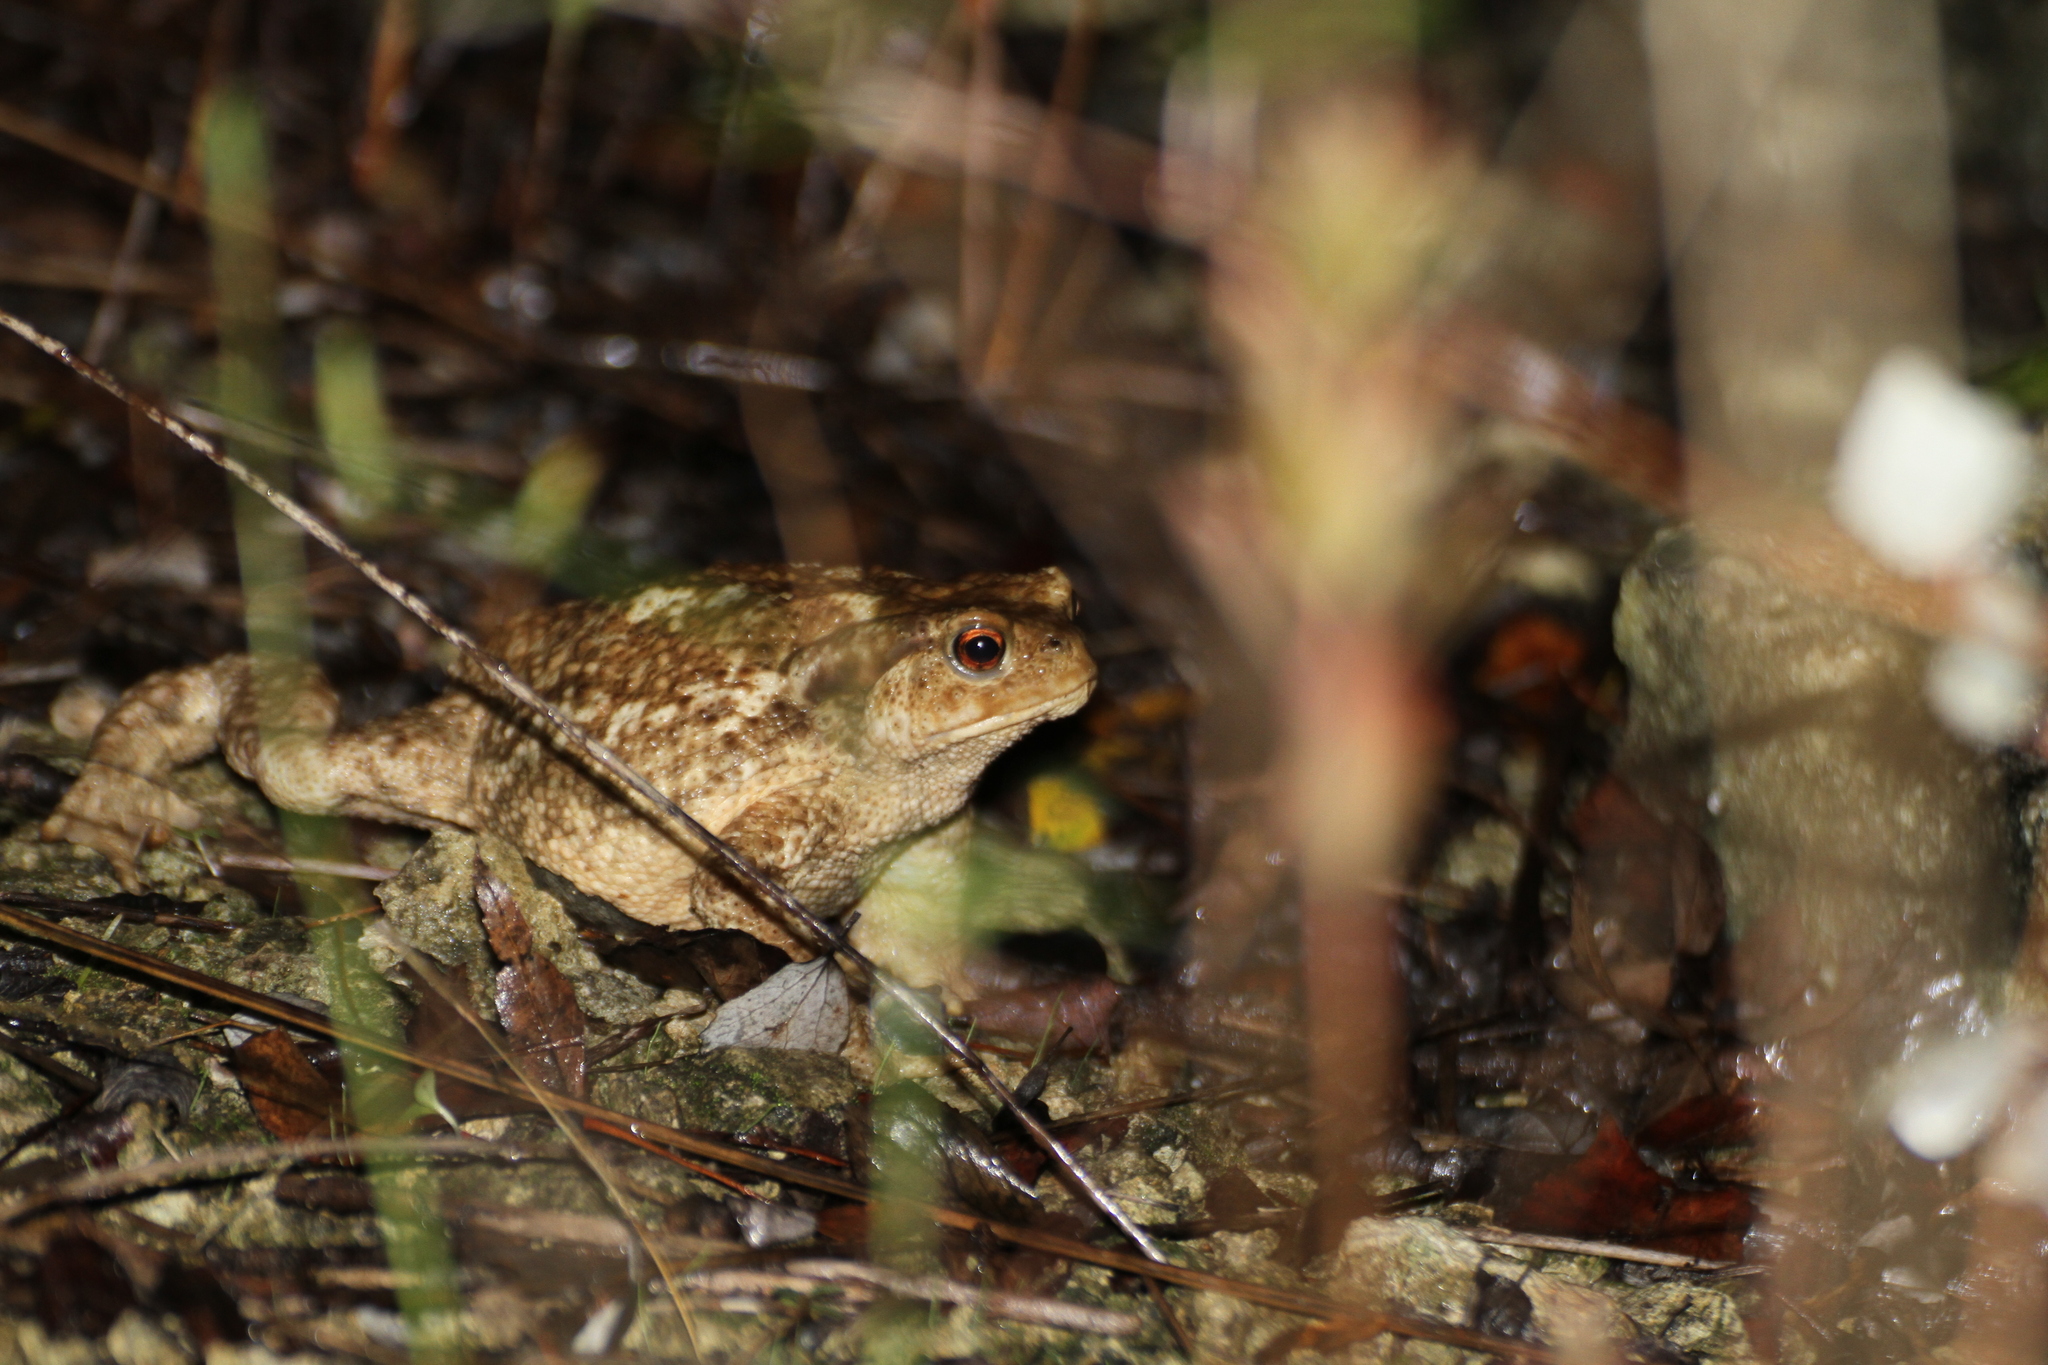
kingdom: Animalia
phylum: Chordata
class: Amphibia
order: Anura
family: Bufonidae
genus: Bufo
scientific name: Bufo spinosus
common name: Western common toad
